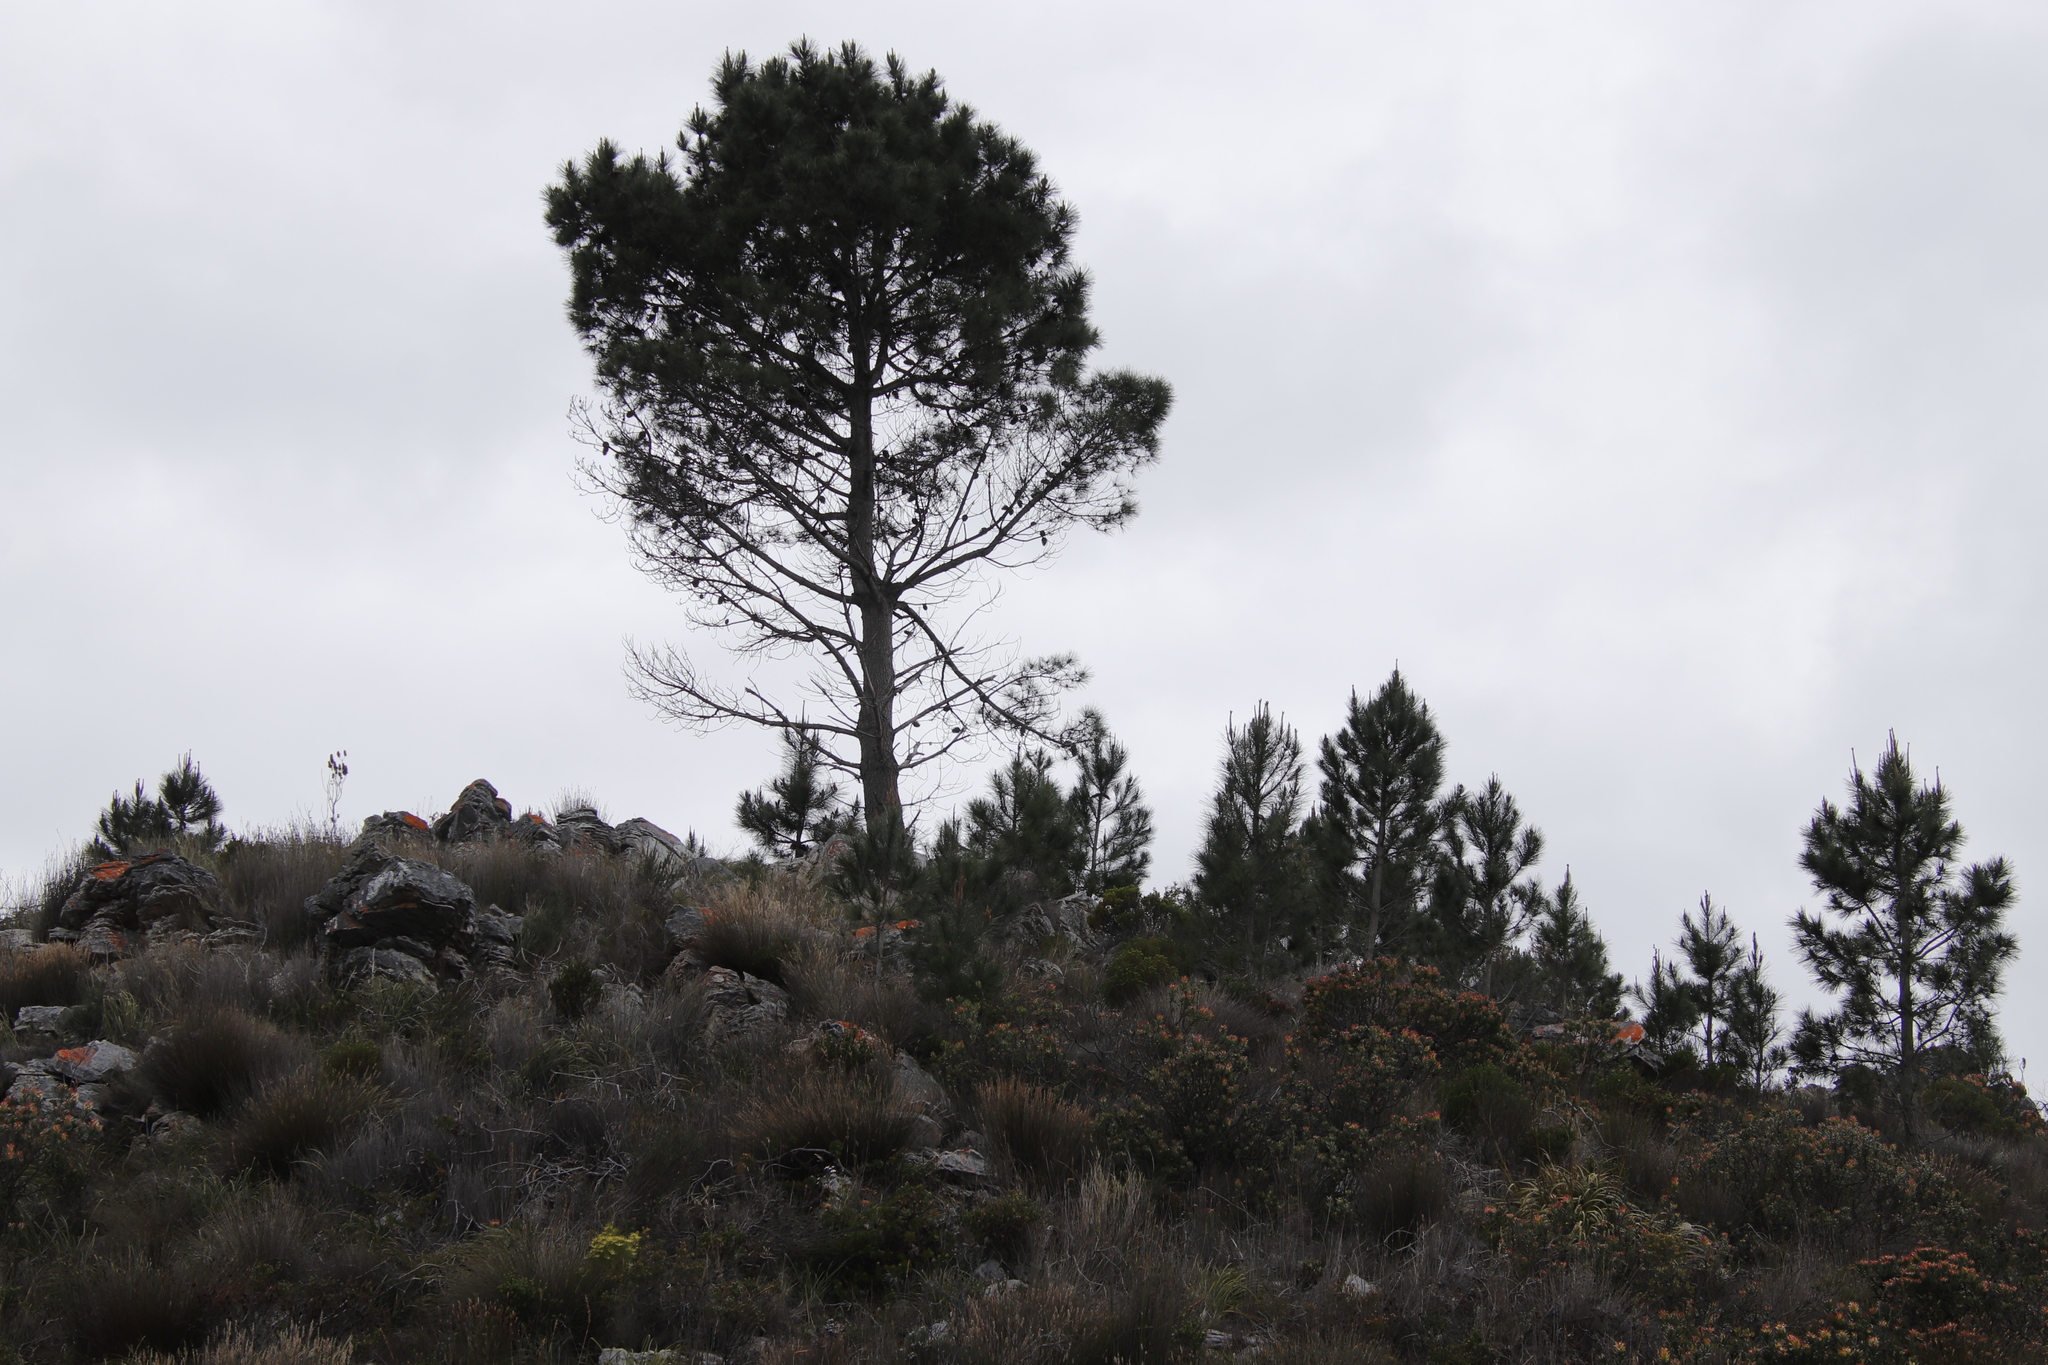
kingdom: Plantae
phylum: Tracheophyta
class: Pinopsida
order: Pinales
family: Pinaceae
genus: Pinus
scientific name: Pinus pinaster
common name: Maritime pine
